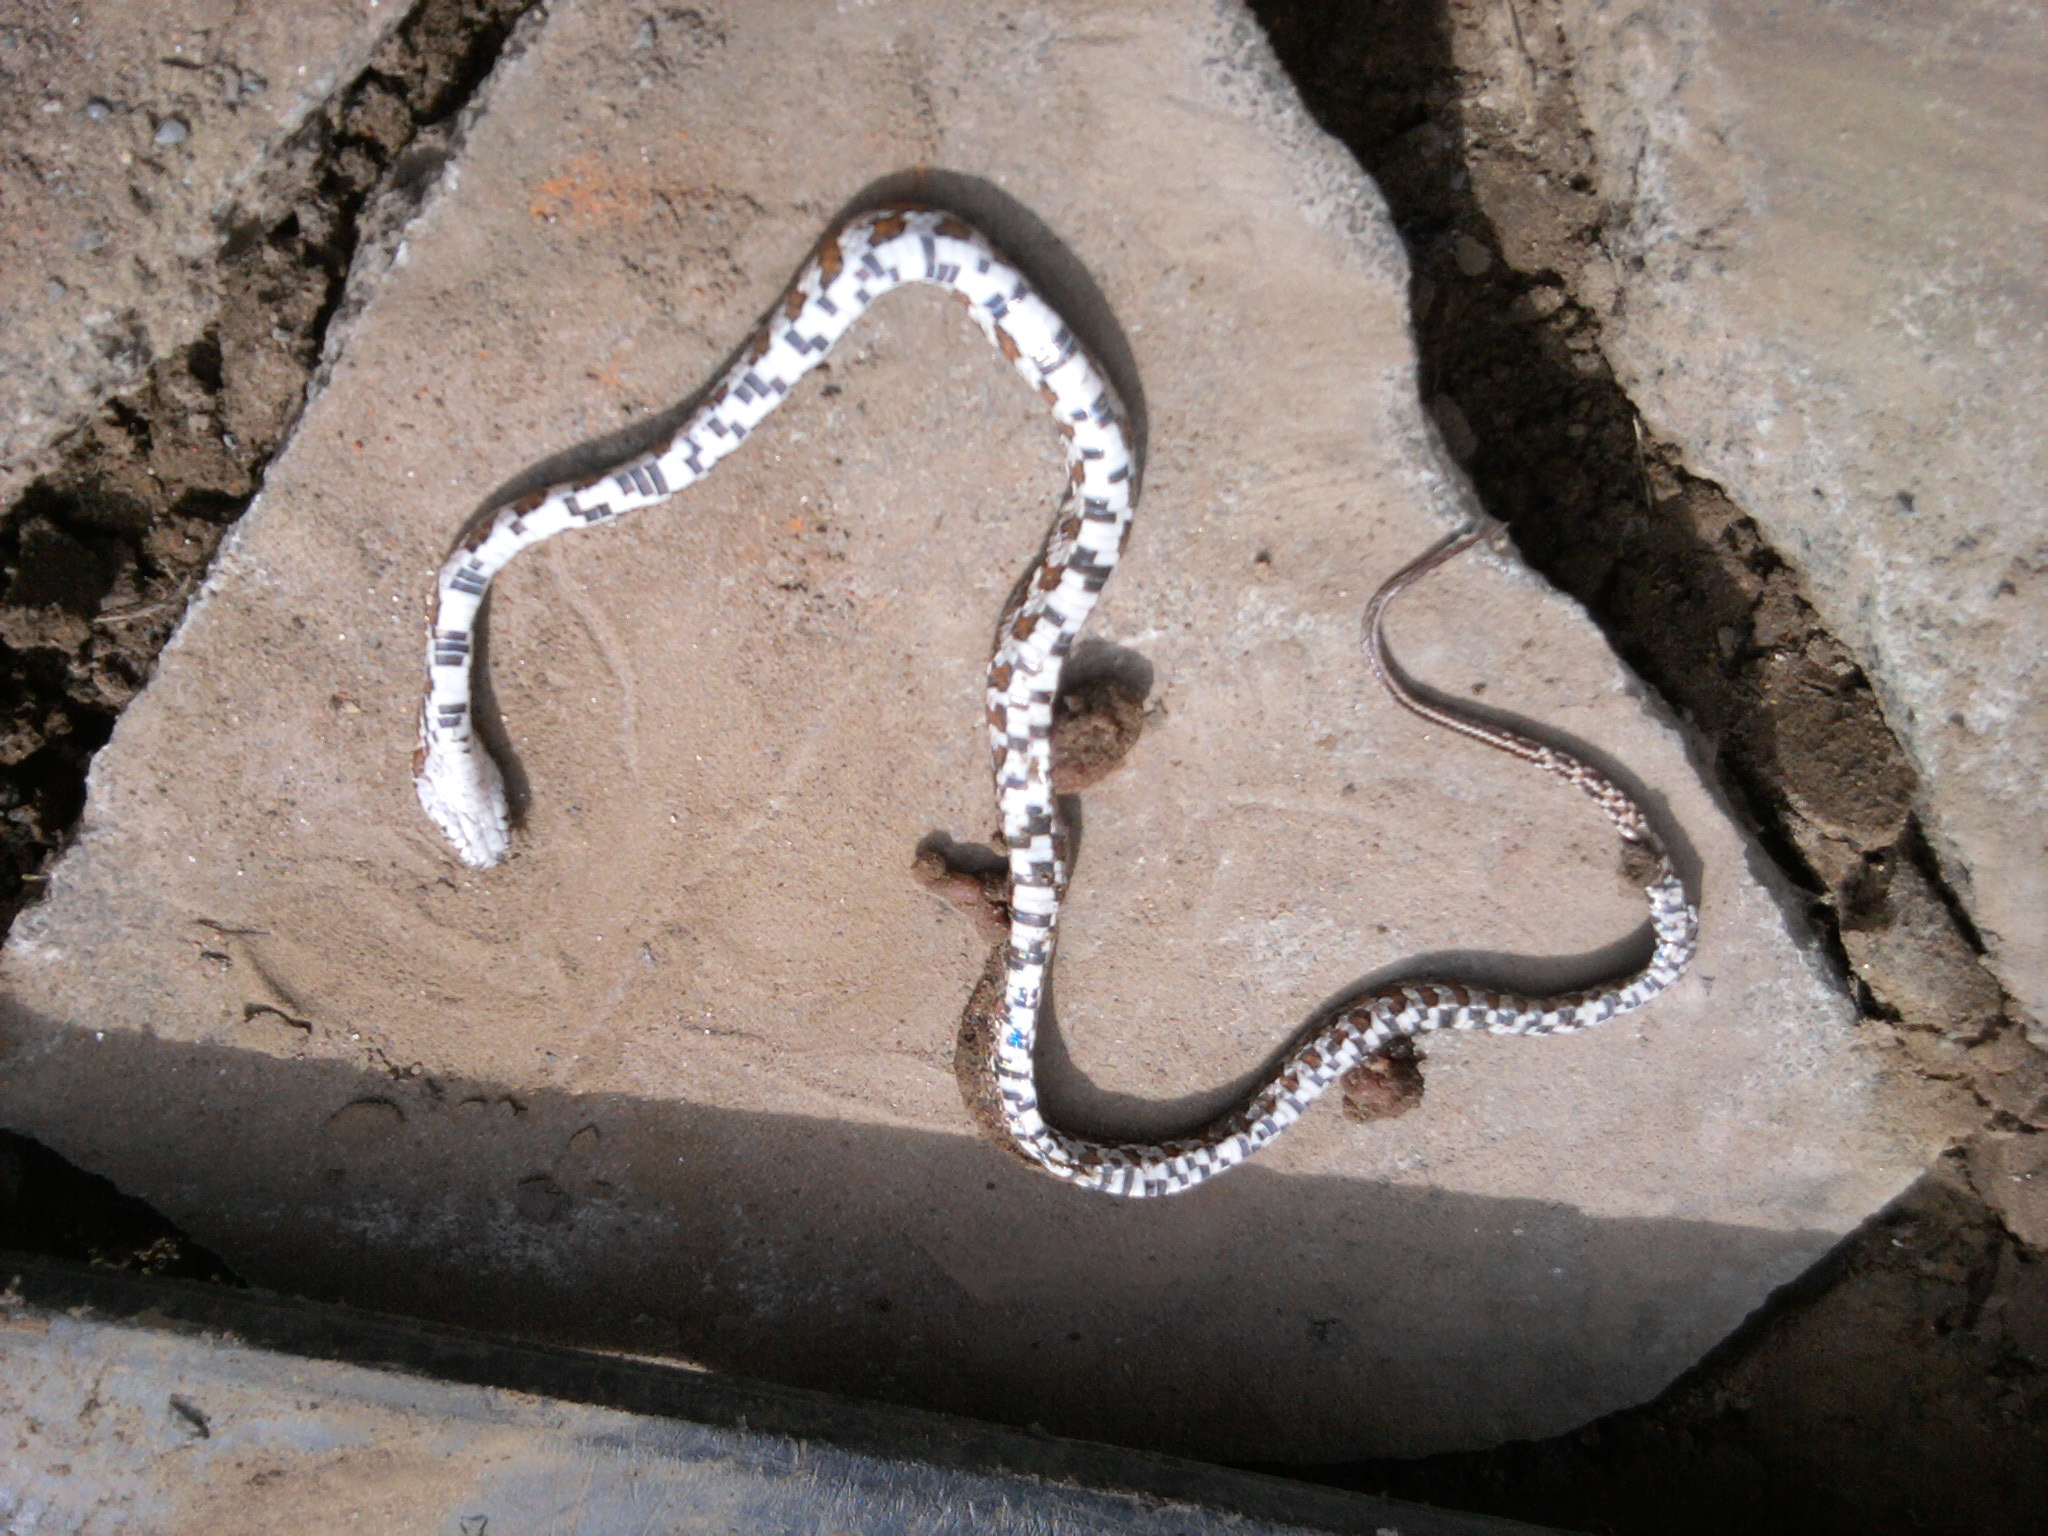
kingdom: Animalia
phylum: Chordata
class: Squamata
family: Colubridae
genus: Pantherophis
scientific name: Pantherophis guttatus
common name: Red cornsnake
